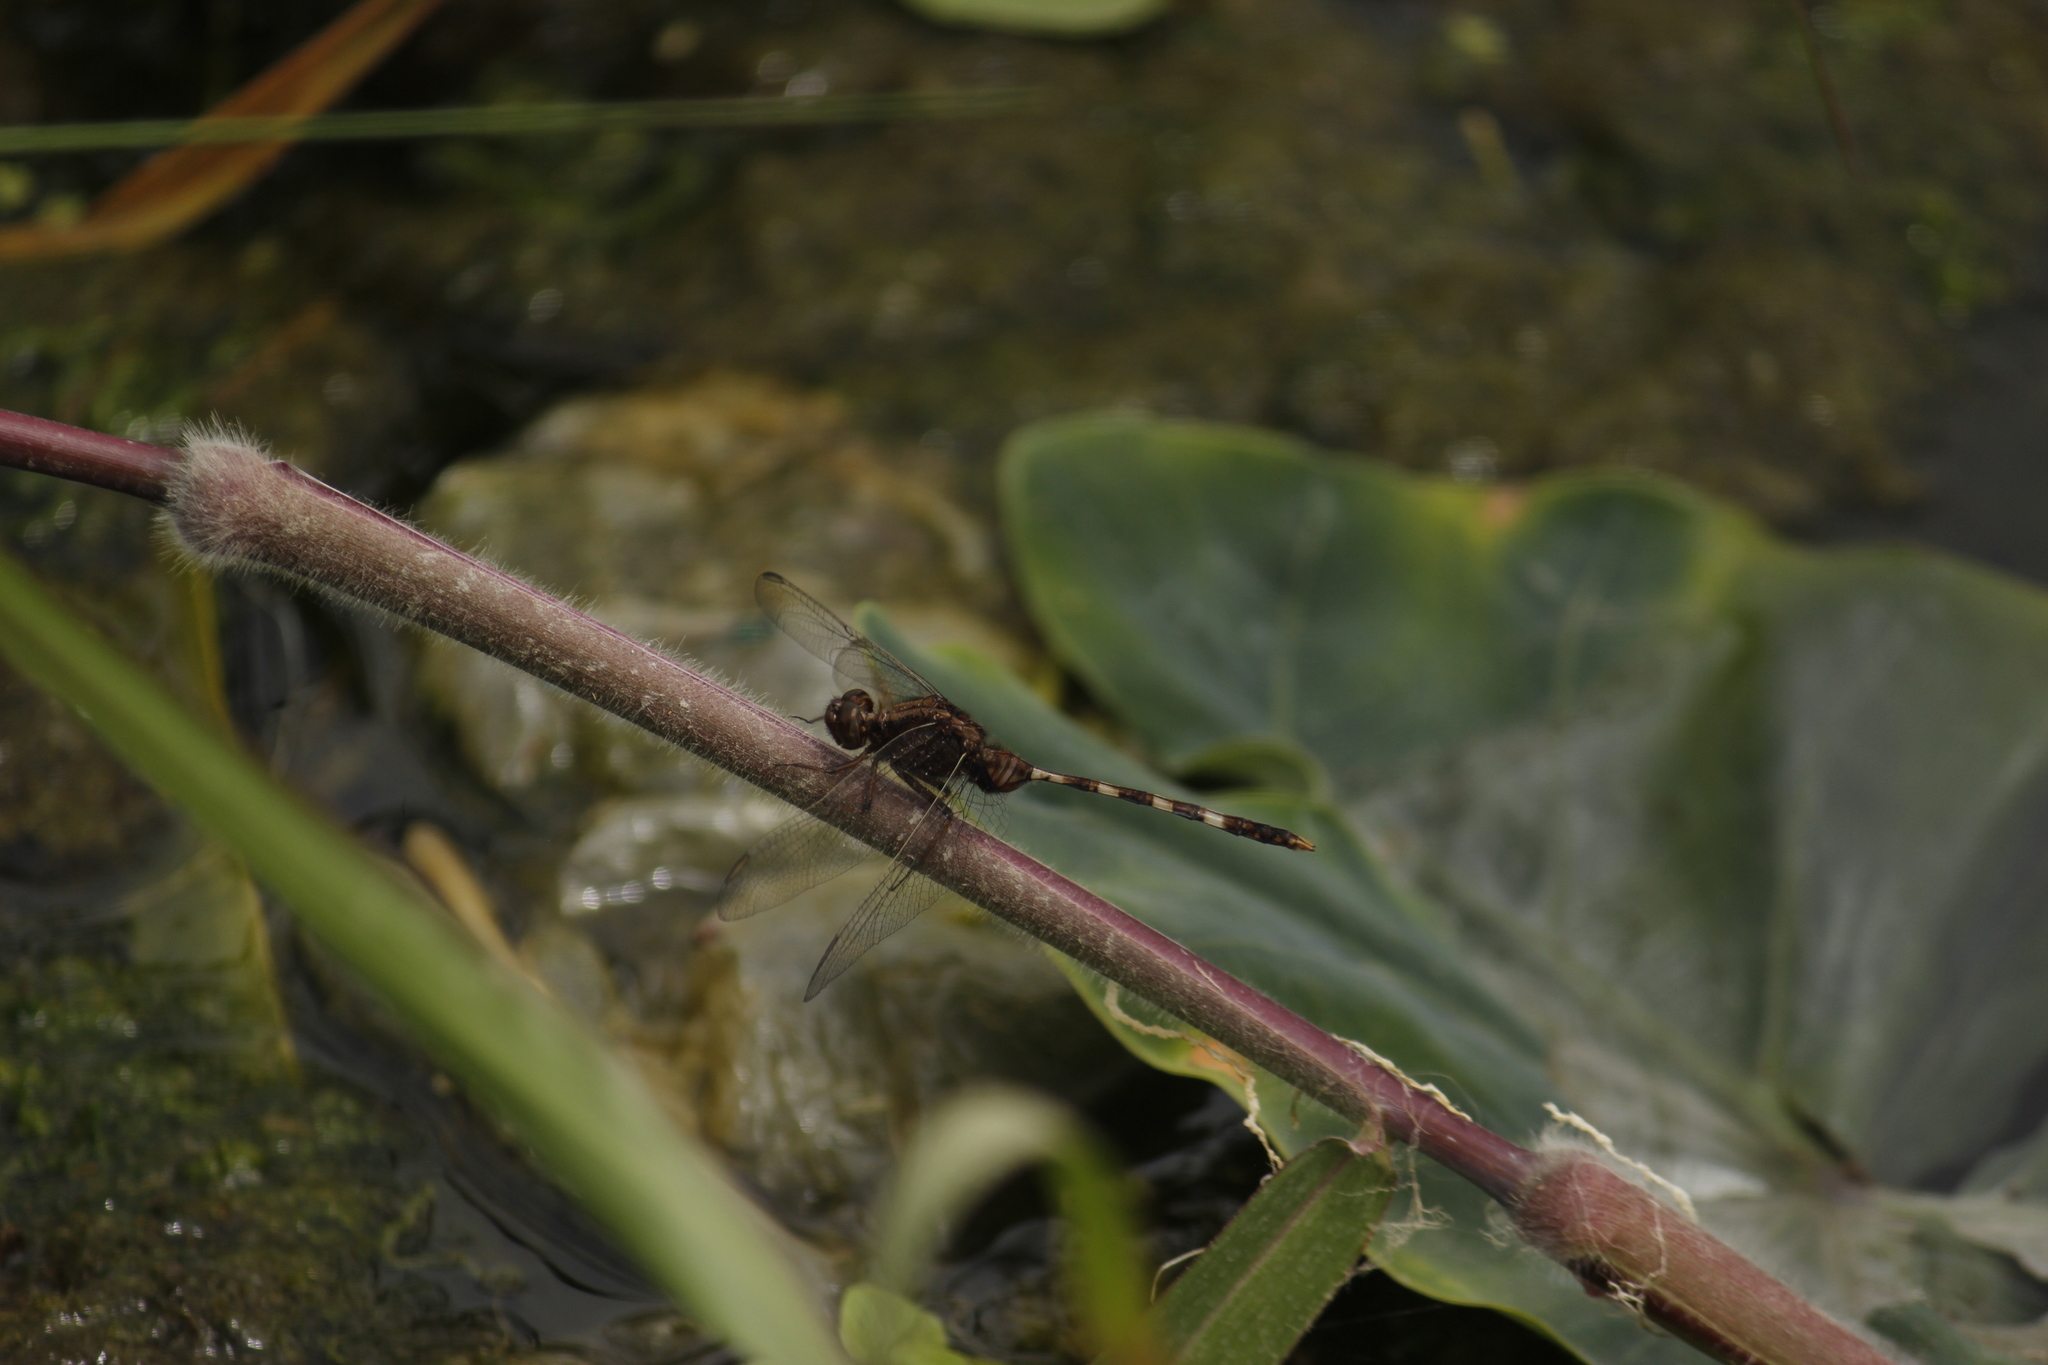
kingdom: Animalia
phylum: Arthropoda
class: Insecta
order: Odonata
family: Libellulidae
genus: Erythemis
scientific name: Erythemis plebeja
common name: Pin-tailed pondhawk
